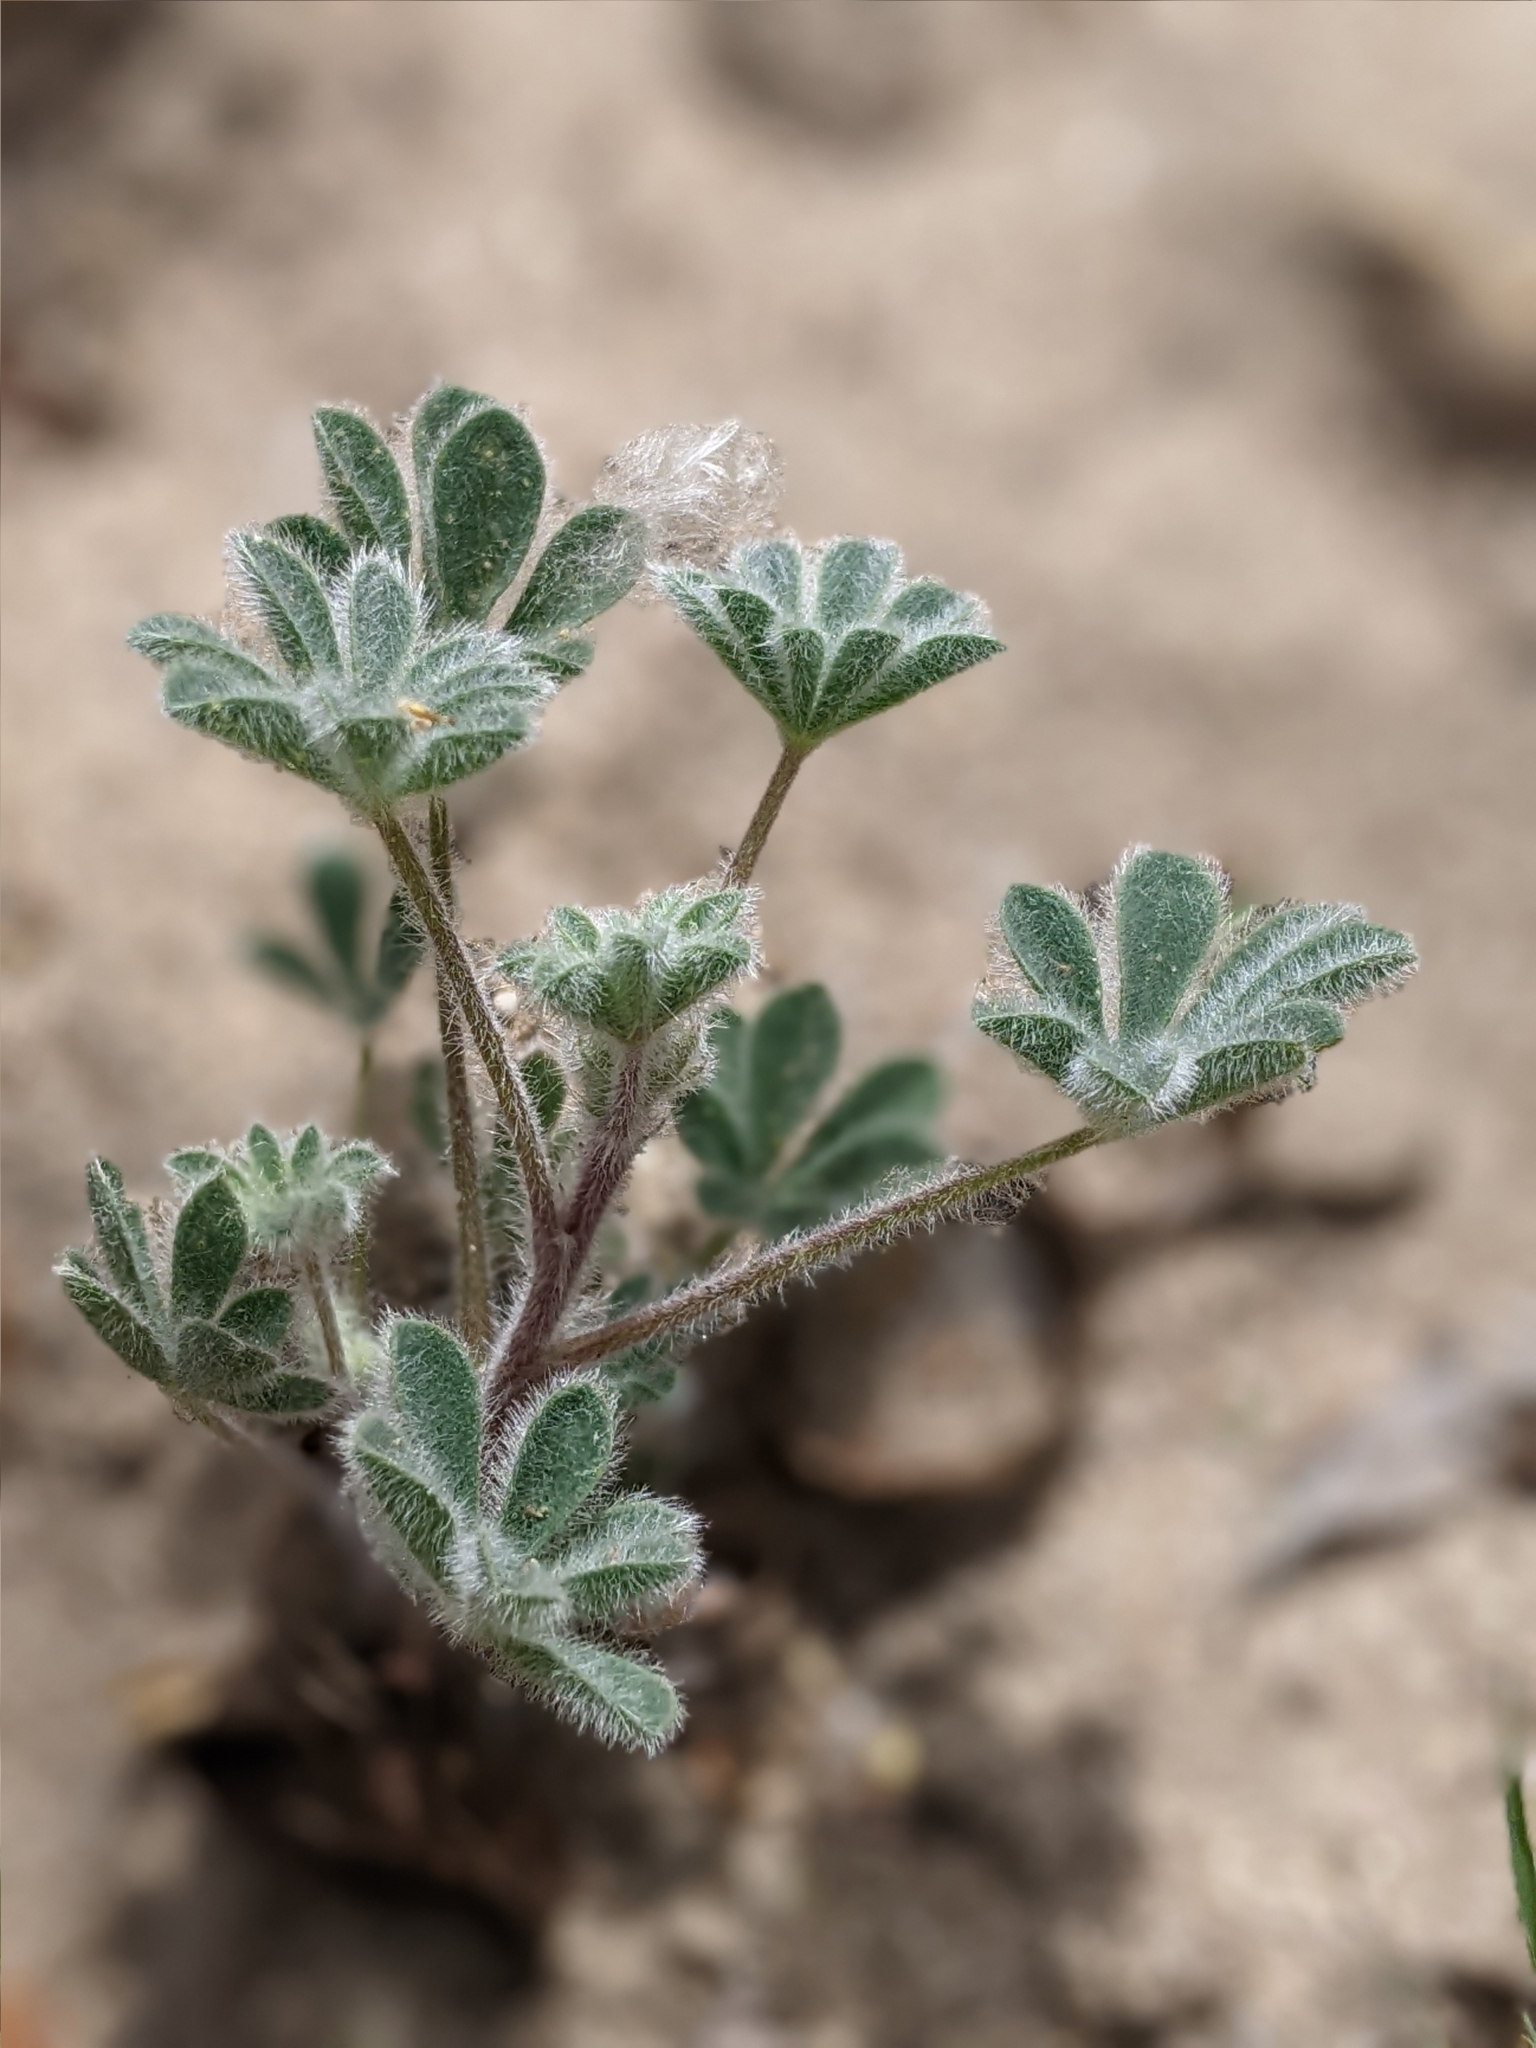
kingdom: Plantae
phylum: Tracheophyta
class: Magnoliopsida
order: Fabales
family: Fabaceae
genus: Lupinus
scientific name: Lupinus concinnus
